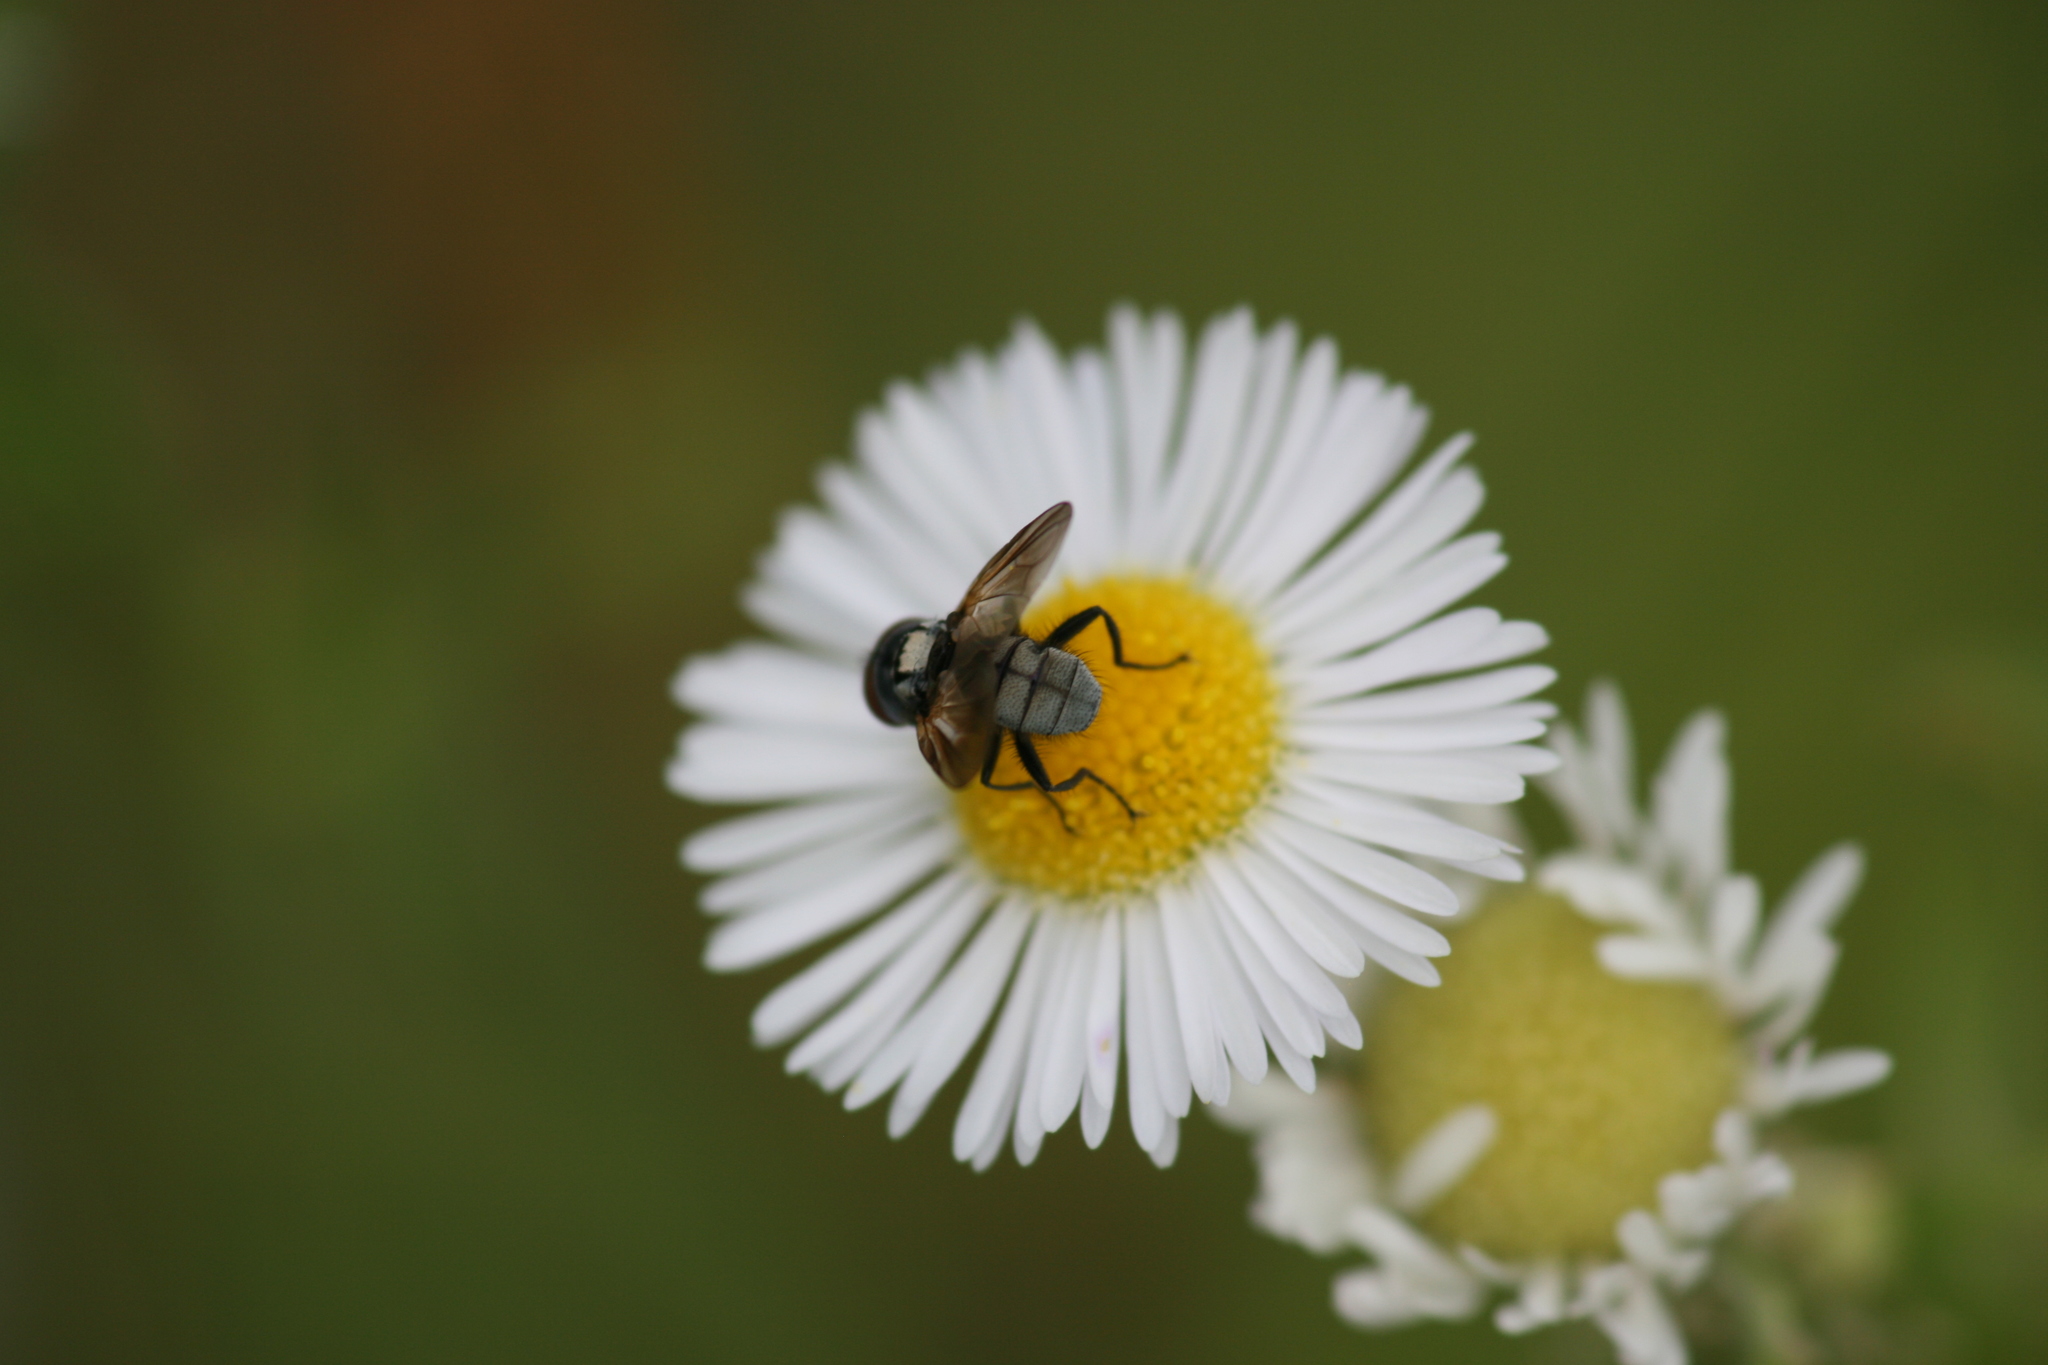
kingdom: Animalia
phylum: Arthropoda
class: Insecta
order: Diptera
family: Tachinidae
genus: Phasia
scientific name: Phasia obesa
